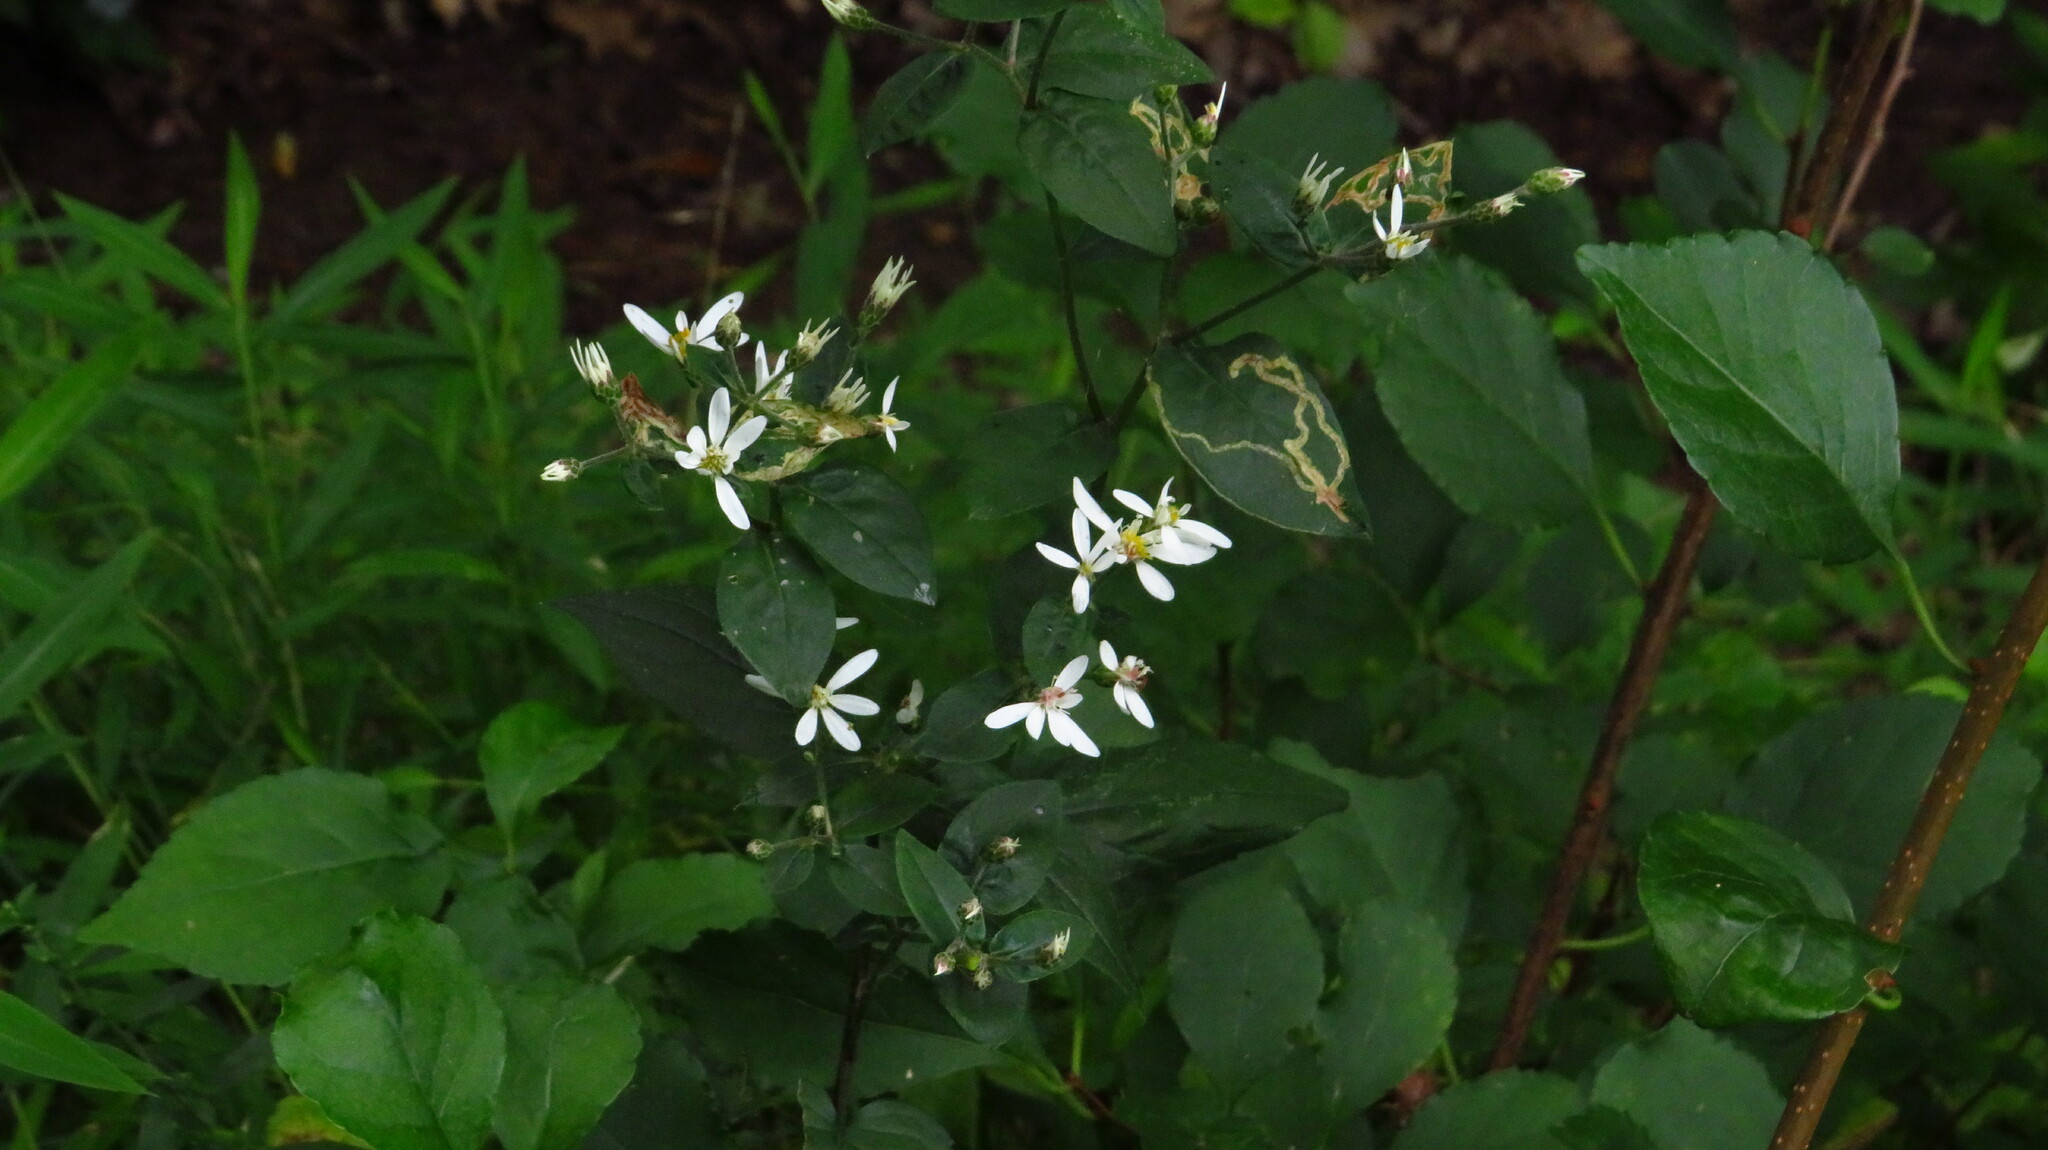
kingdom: Plantae
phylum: Tracheophyta
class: Magnoliopsida
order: Asterales
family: Asteraceae
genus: Eurybia
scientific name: Eurybia divaricata
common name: White wood aster
